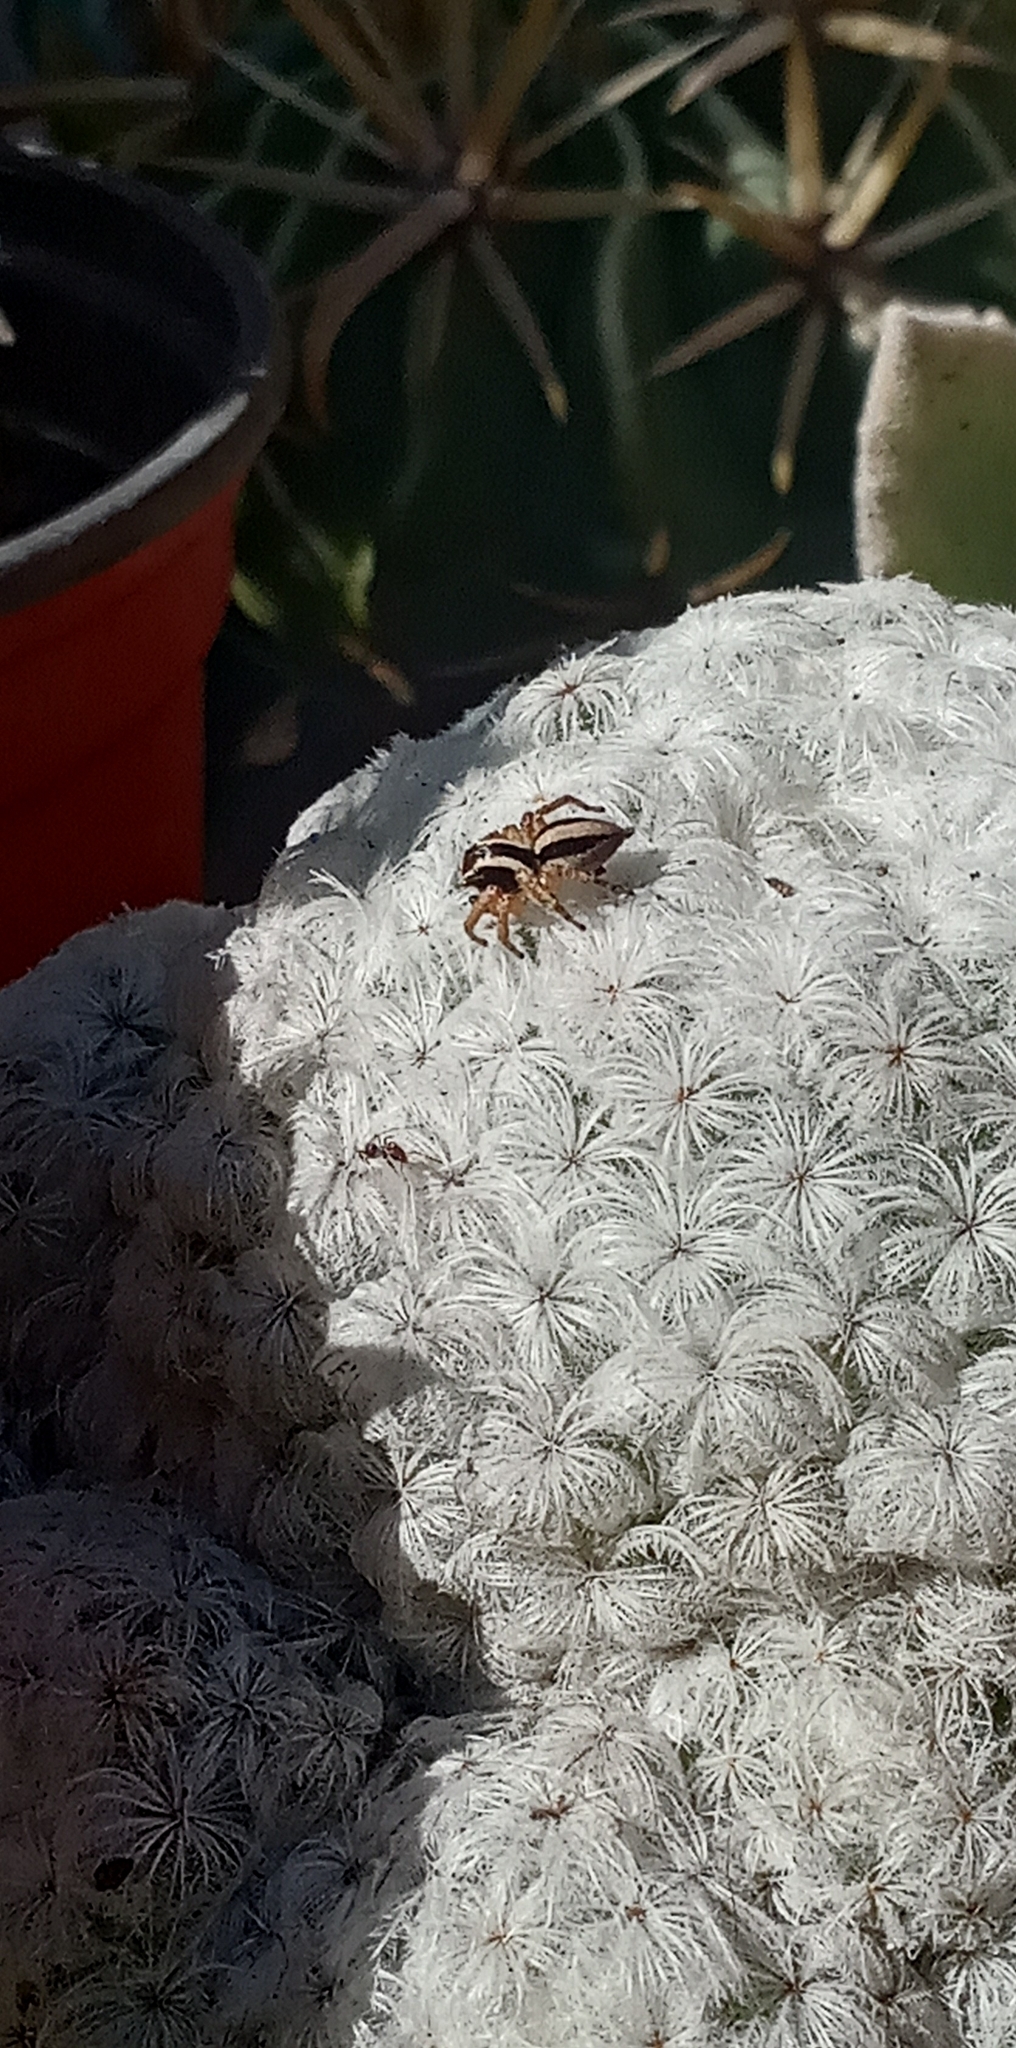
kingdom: Animalia
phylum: Arthropoda
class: Arachnida
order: Araneae
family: Salticidae
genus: Aphirape
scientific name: Aphirape
